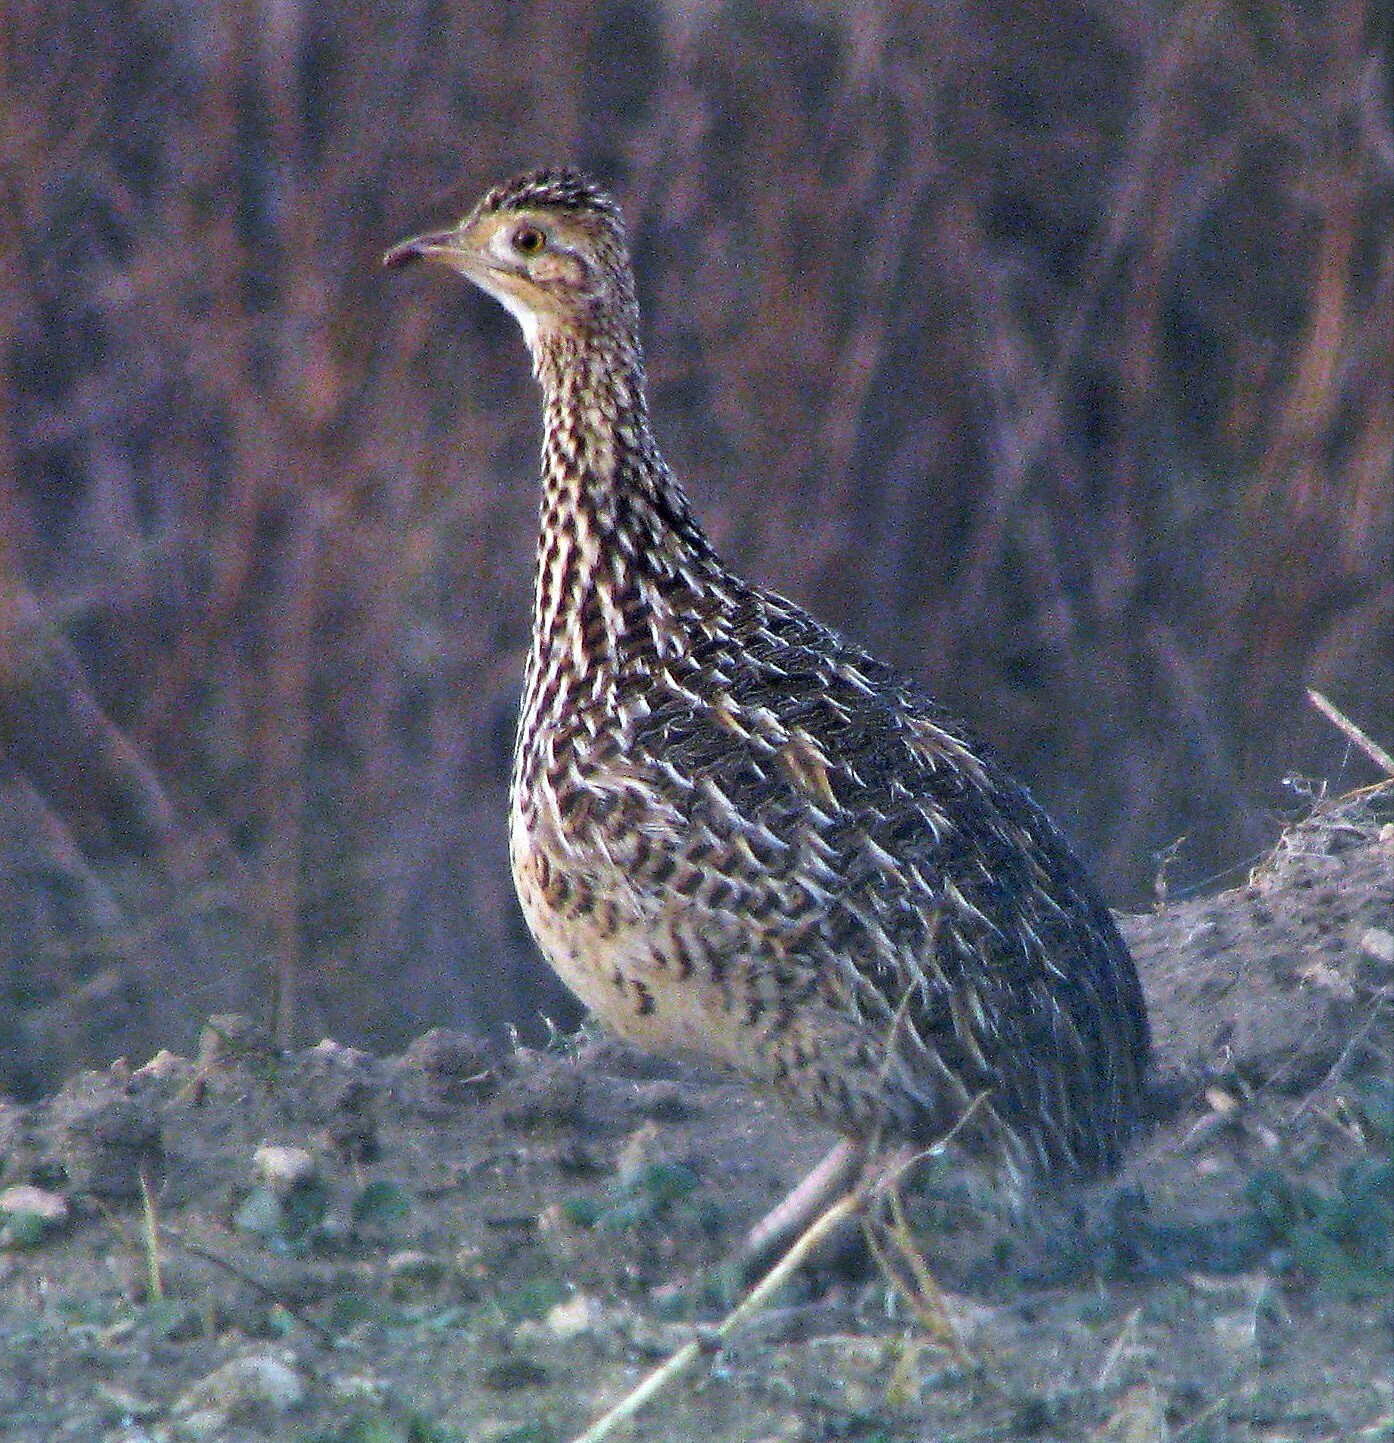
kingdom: Animalia
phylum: Chordata
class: Aves
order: Tinamiformes
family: Tinamidae
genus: Nothura
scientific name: Nothura maculosa
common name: Spotted nothura
